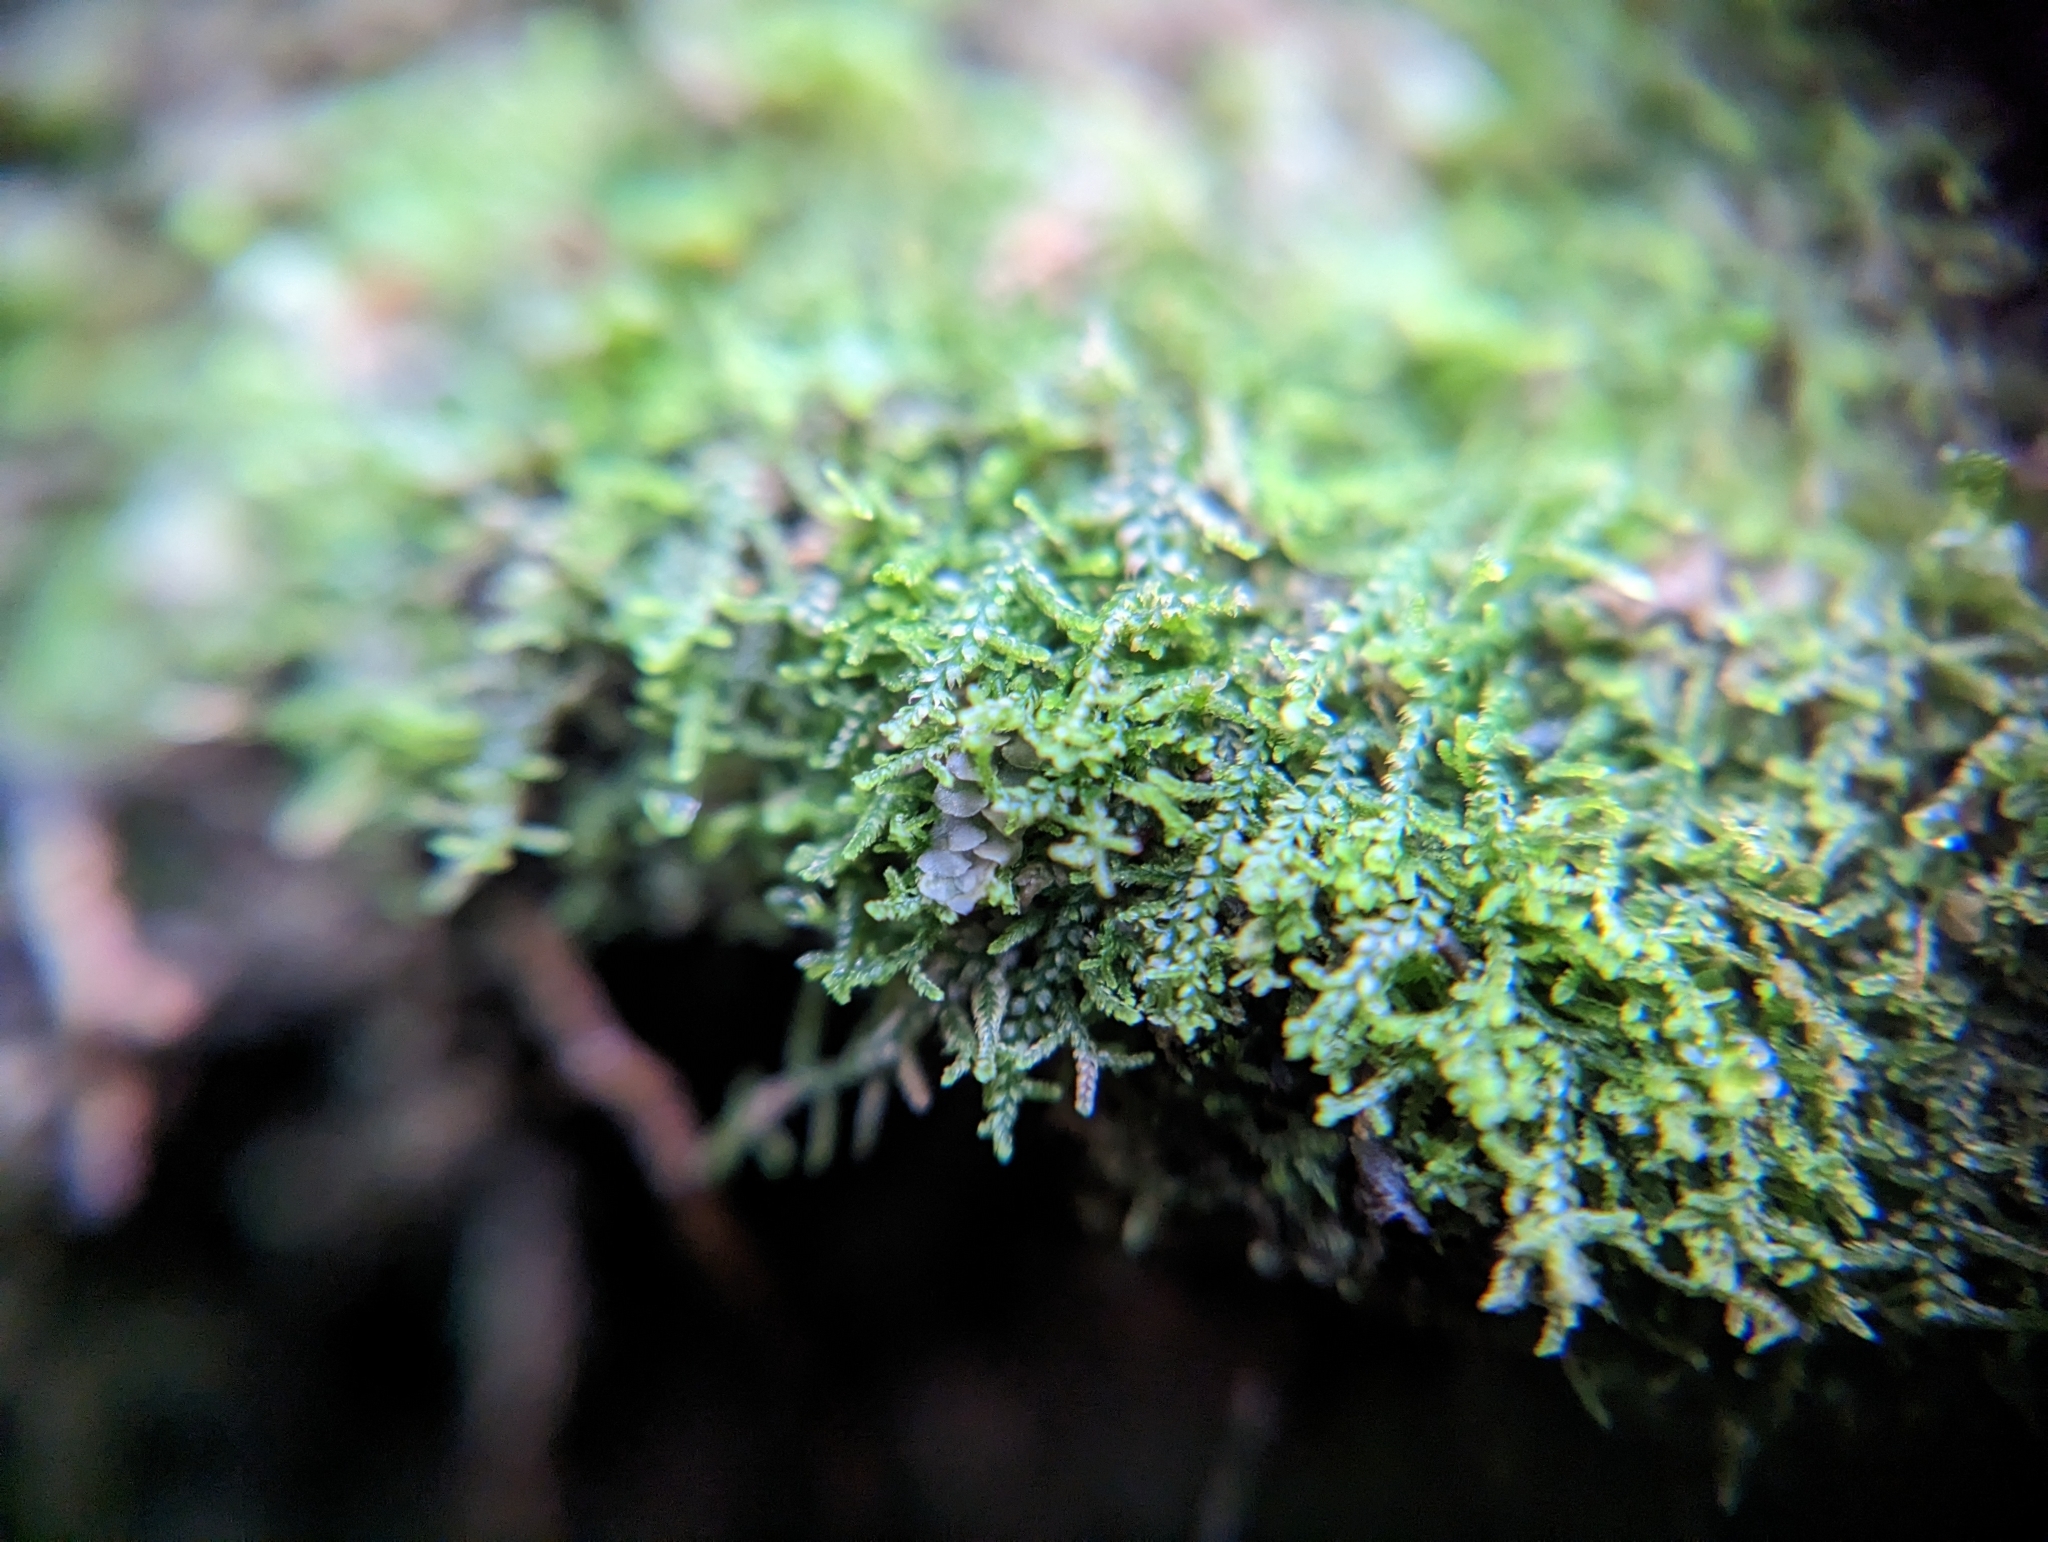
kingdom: Plantae
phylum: Marchantiophyta
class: Jungermanniopsida
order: Jungermanniales
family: Lepidoziaceae
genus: Lepidozia
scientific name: Lepidozia reptans
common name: Creeping fingerwort
